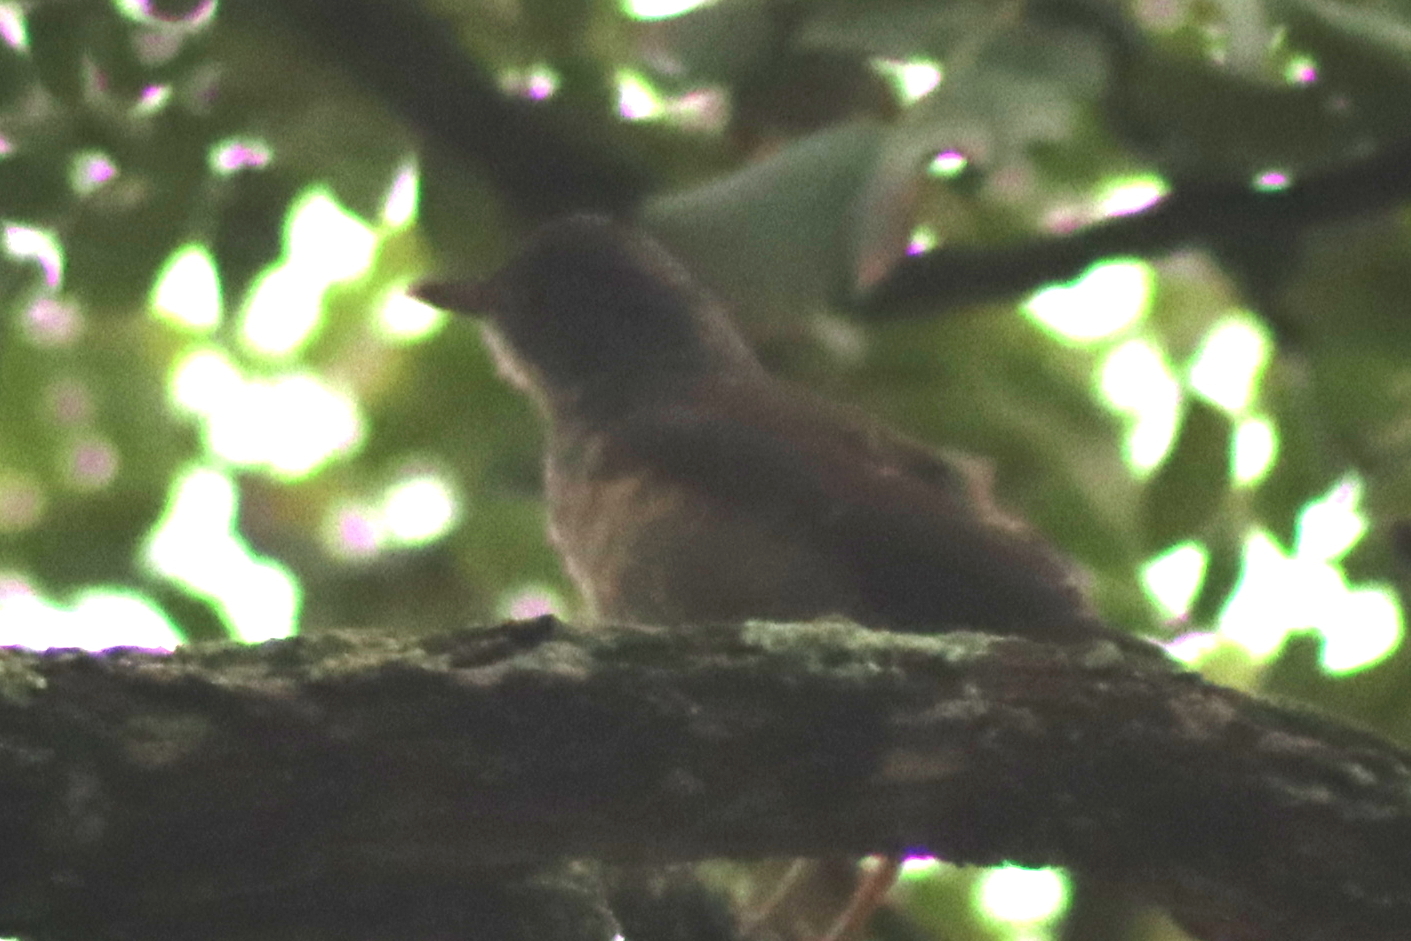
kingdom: Animalia
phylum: Chordata
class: Aves
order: Passeriformes
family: Turdidae
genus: Turdus
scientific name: Turdus leucomelas
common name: Pale-breasted thrush
